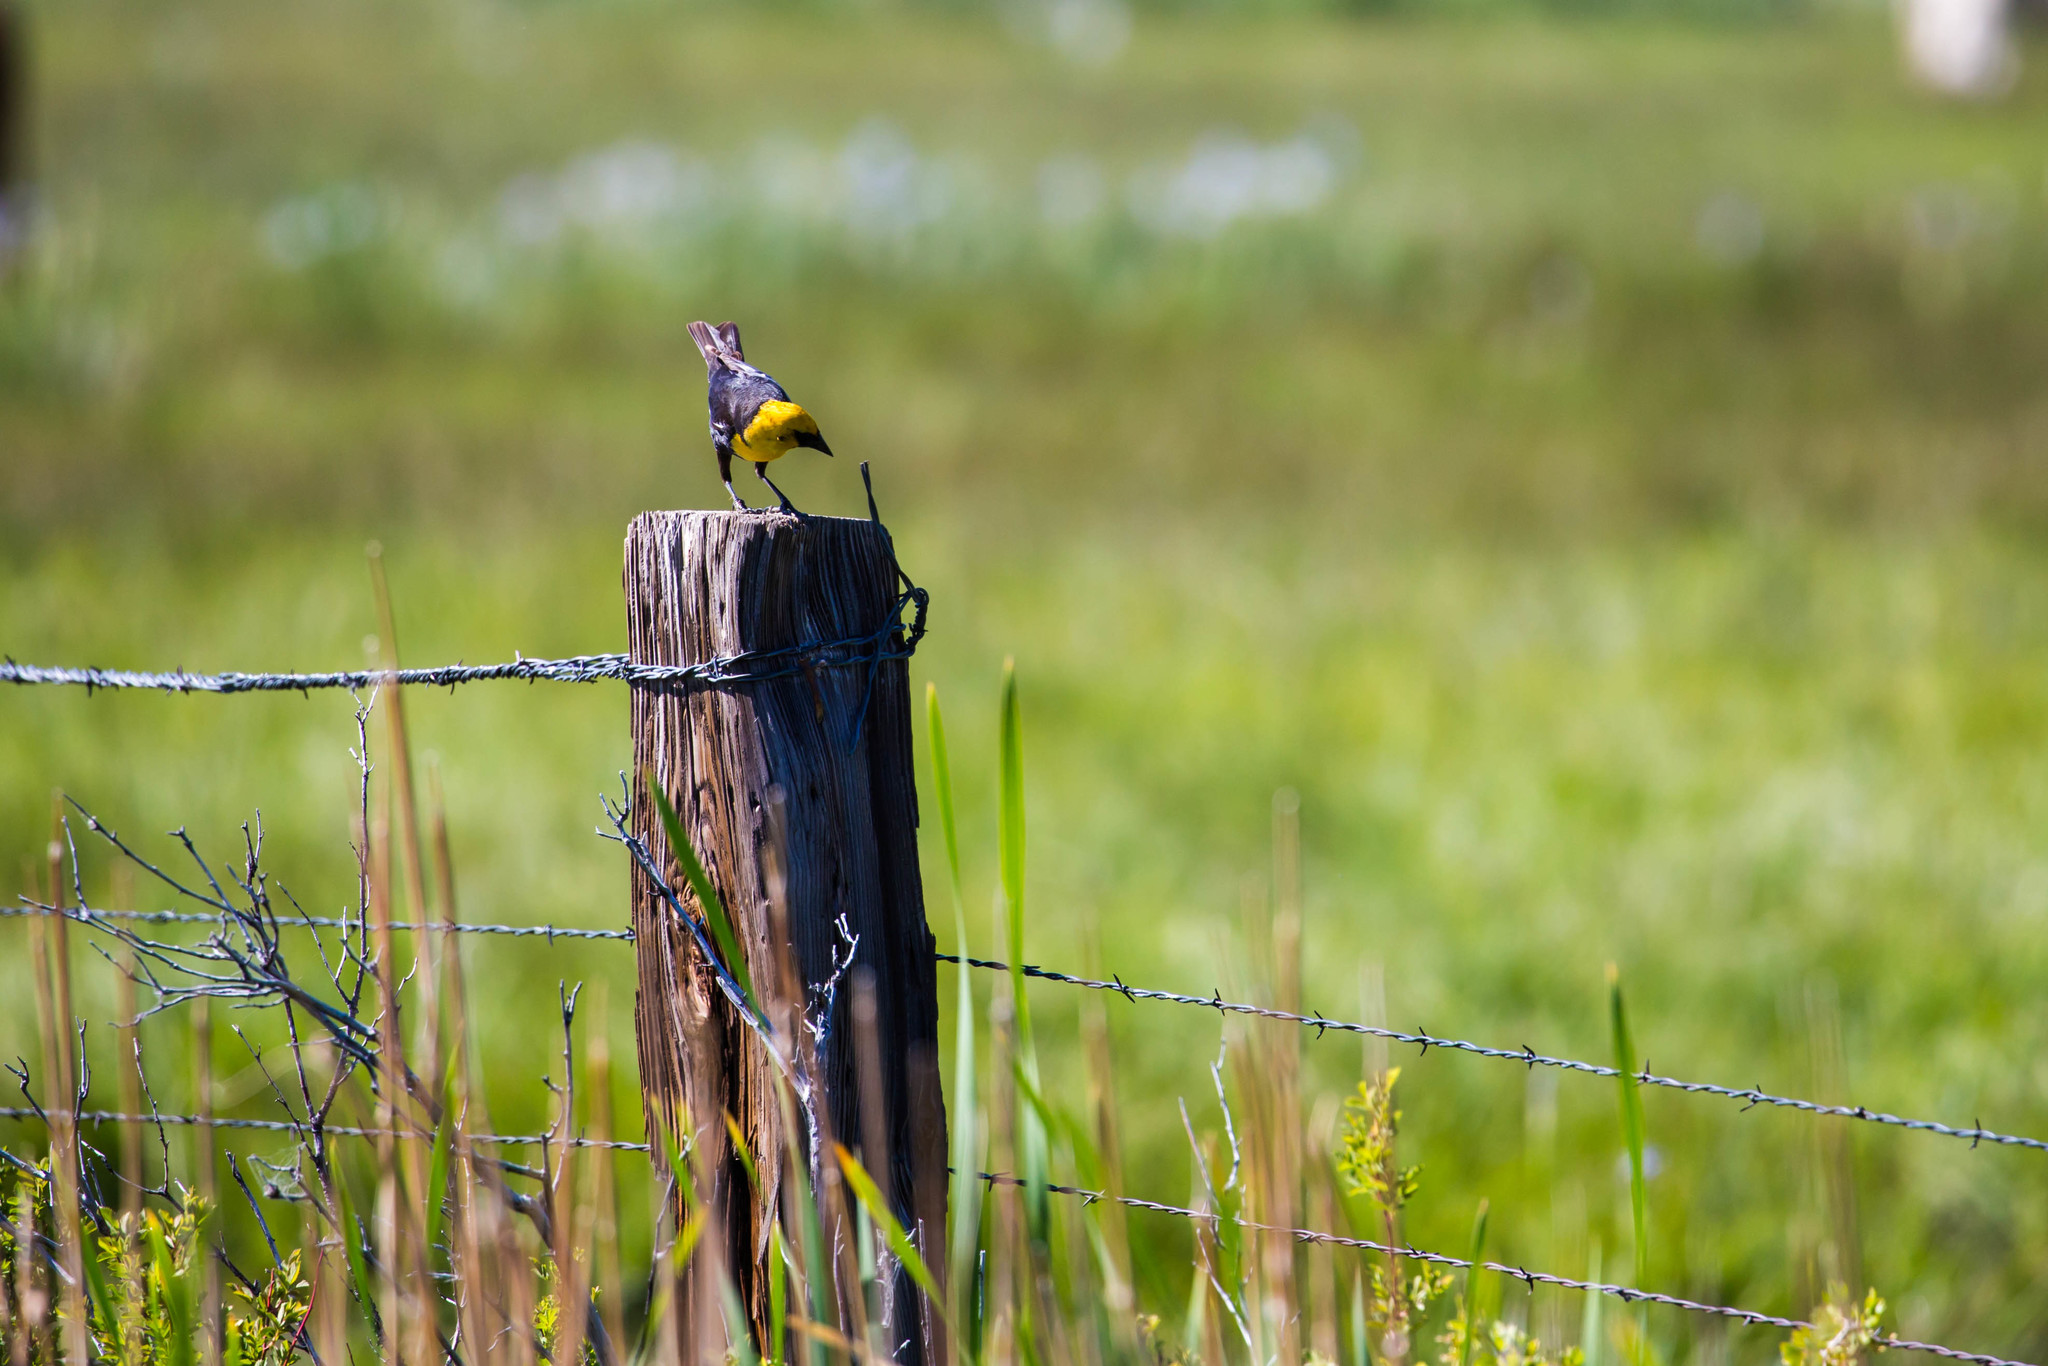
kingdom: Animalia
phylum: Chordata
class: Aves
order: Passeriformes
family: Icteridae
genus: Xanthocephalus
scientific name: Xanthocephalus xanthocephalus
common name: Yellow-headed blackbird
